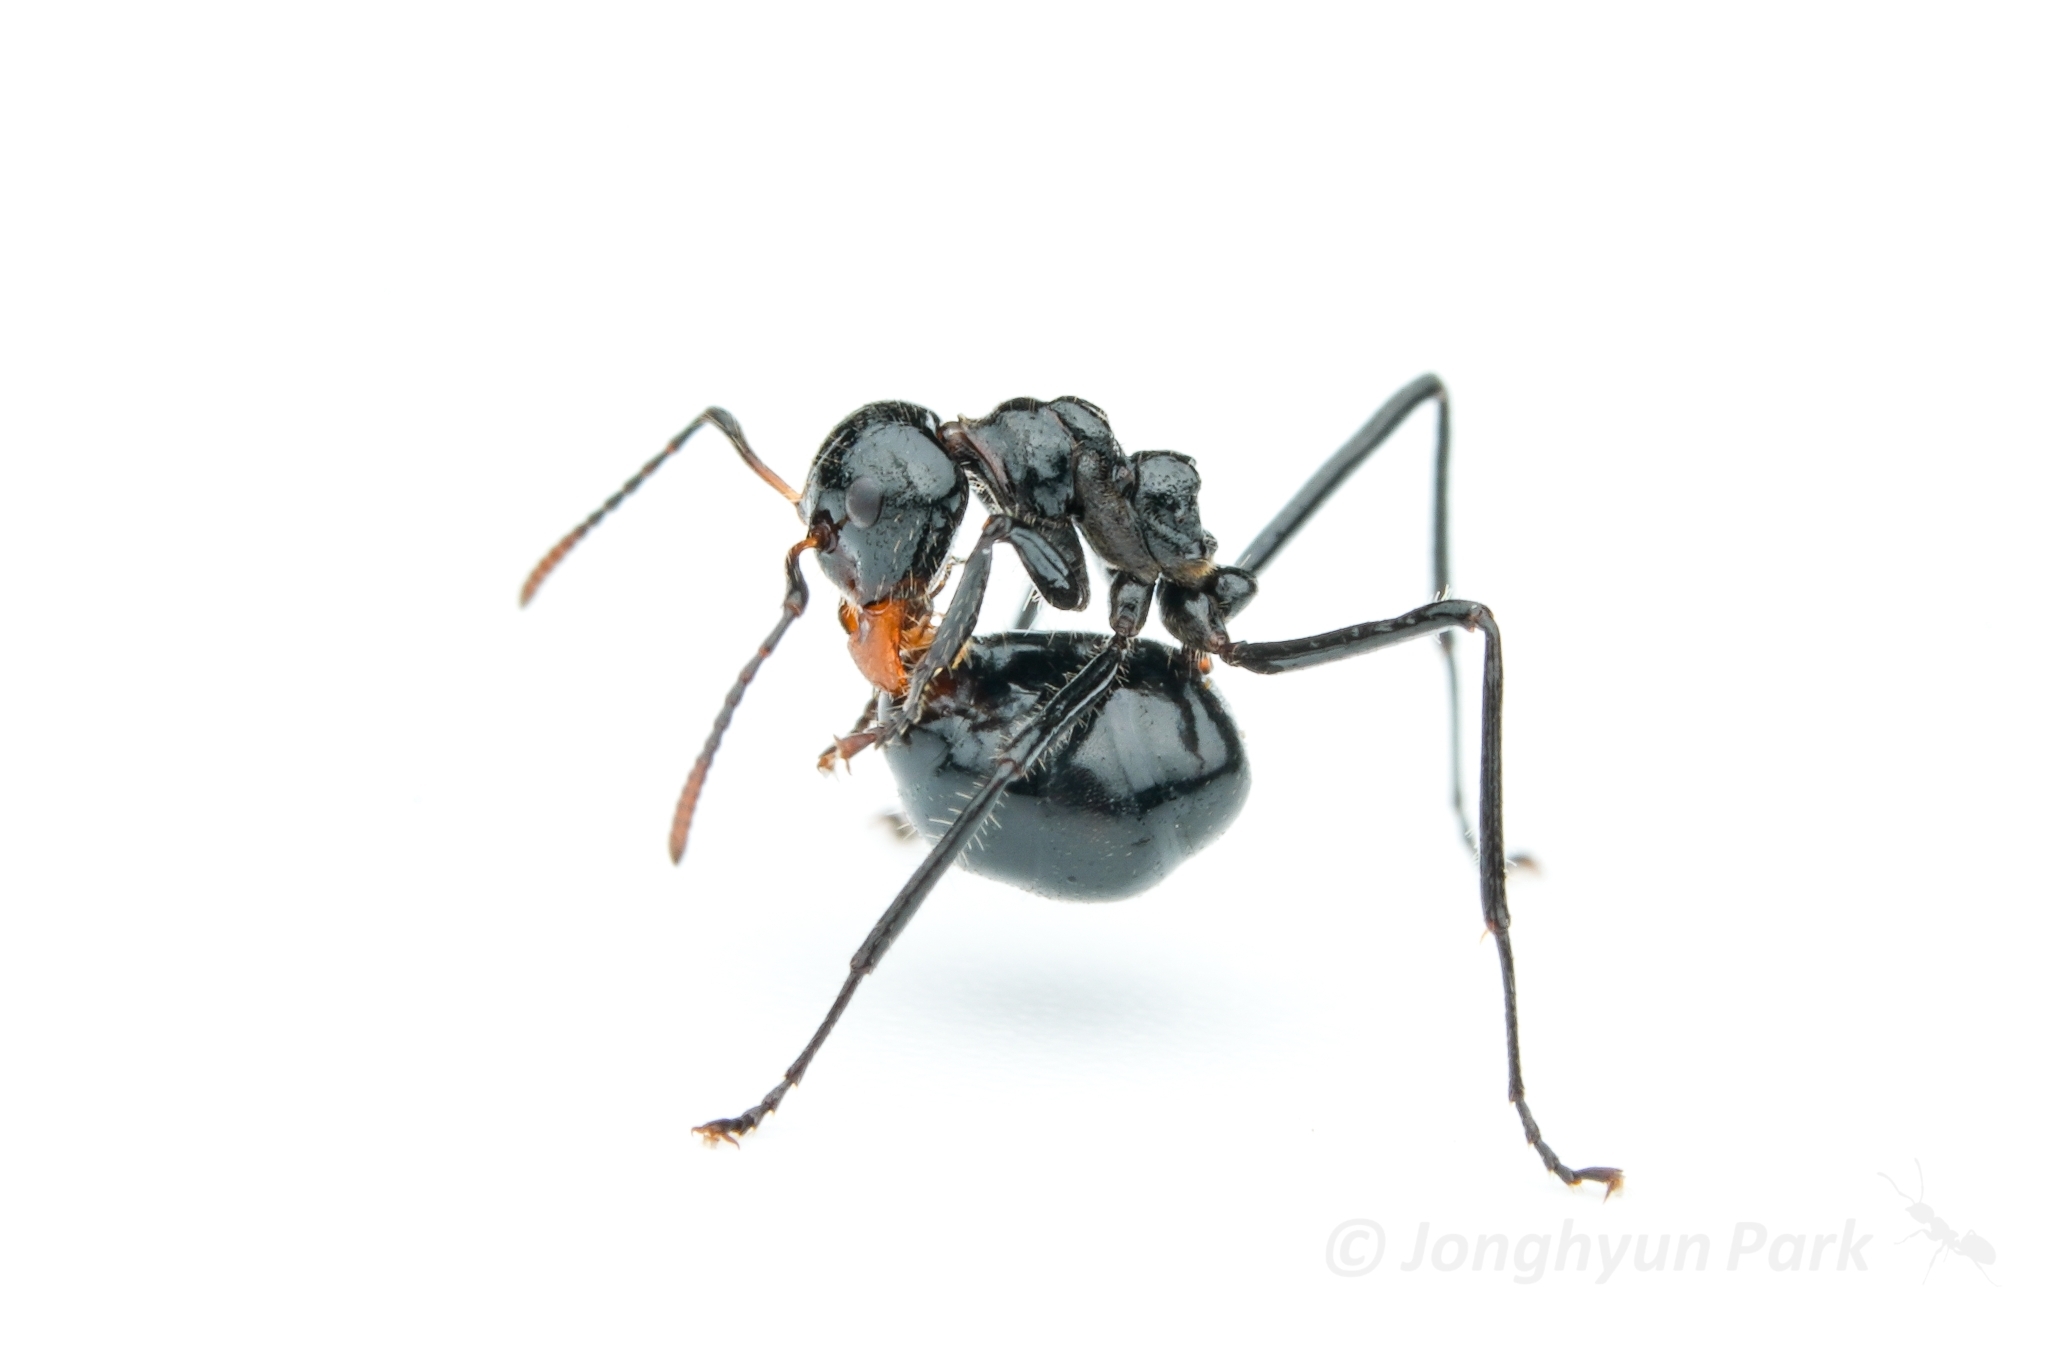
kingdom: Animalia
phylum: Arthropoda
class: Insecta
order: Hymenoptera
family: Formicidae
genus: Dolichoderus
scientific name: Dolichoderus sulcaticeps
